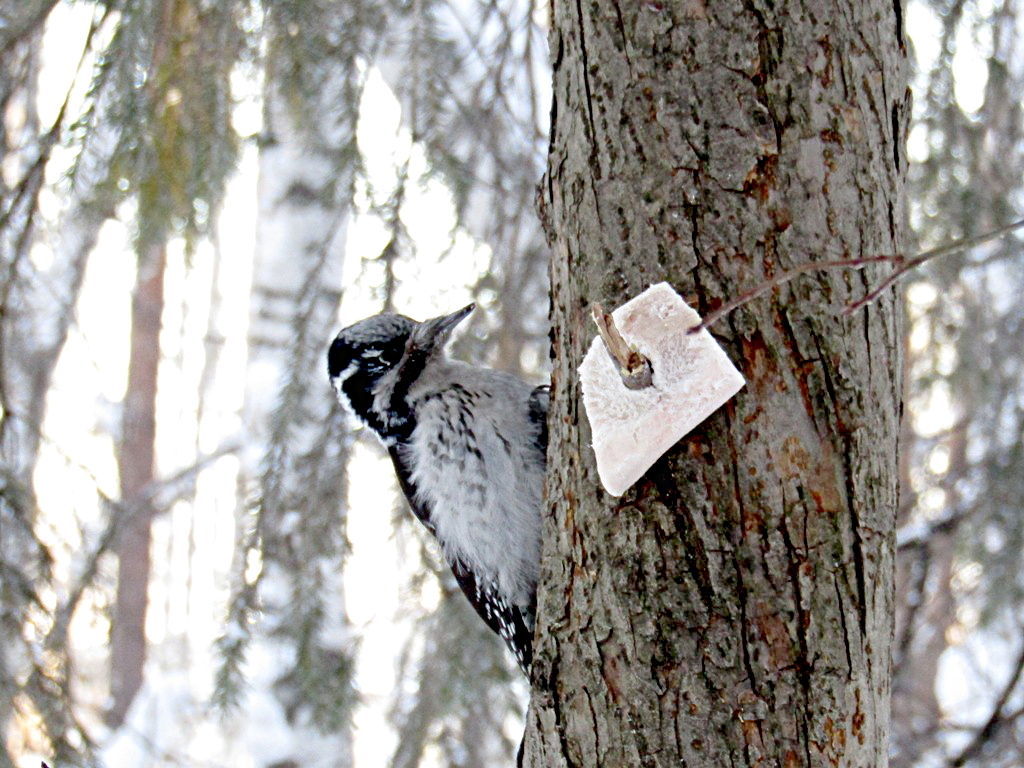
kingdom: Animalia
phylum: Chordata
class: Aves
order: Piciformes
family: Picidae
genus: Picoides
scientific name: Picoides tridactylus
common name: Eurasian three-toed woodpecker
